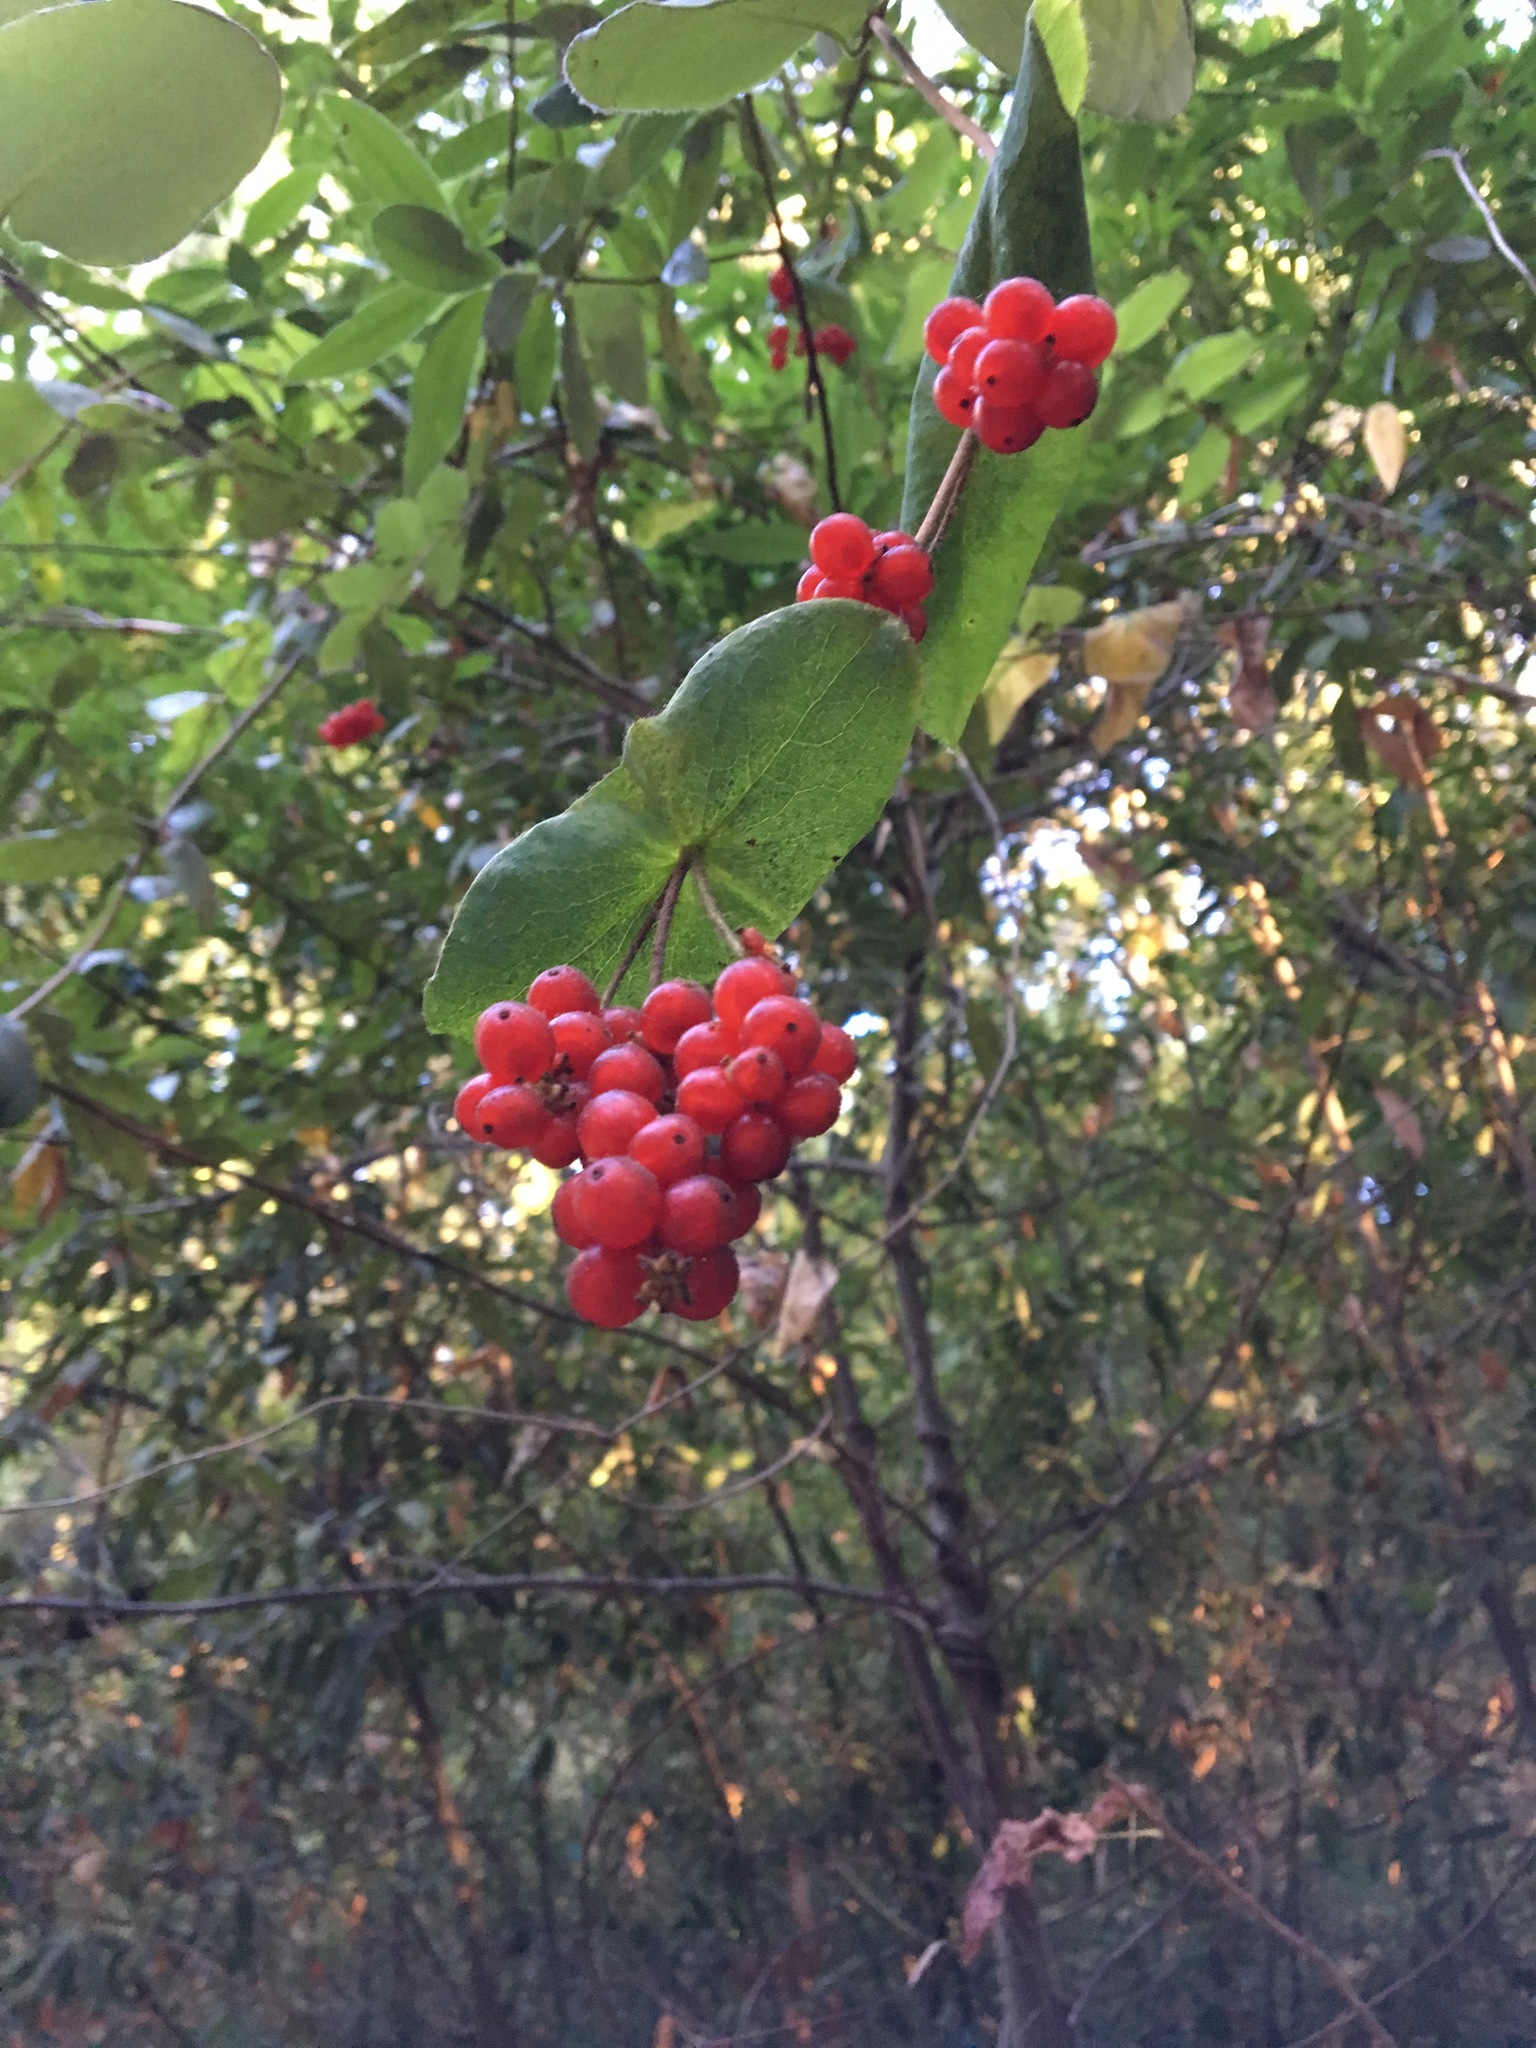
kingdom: Plantae
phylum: Tracheophyta
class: Magnoliopsida
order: Dipsacales
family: Caprifoliaceae
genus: Lonicera
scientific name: Lonicera hispidula
